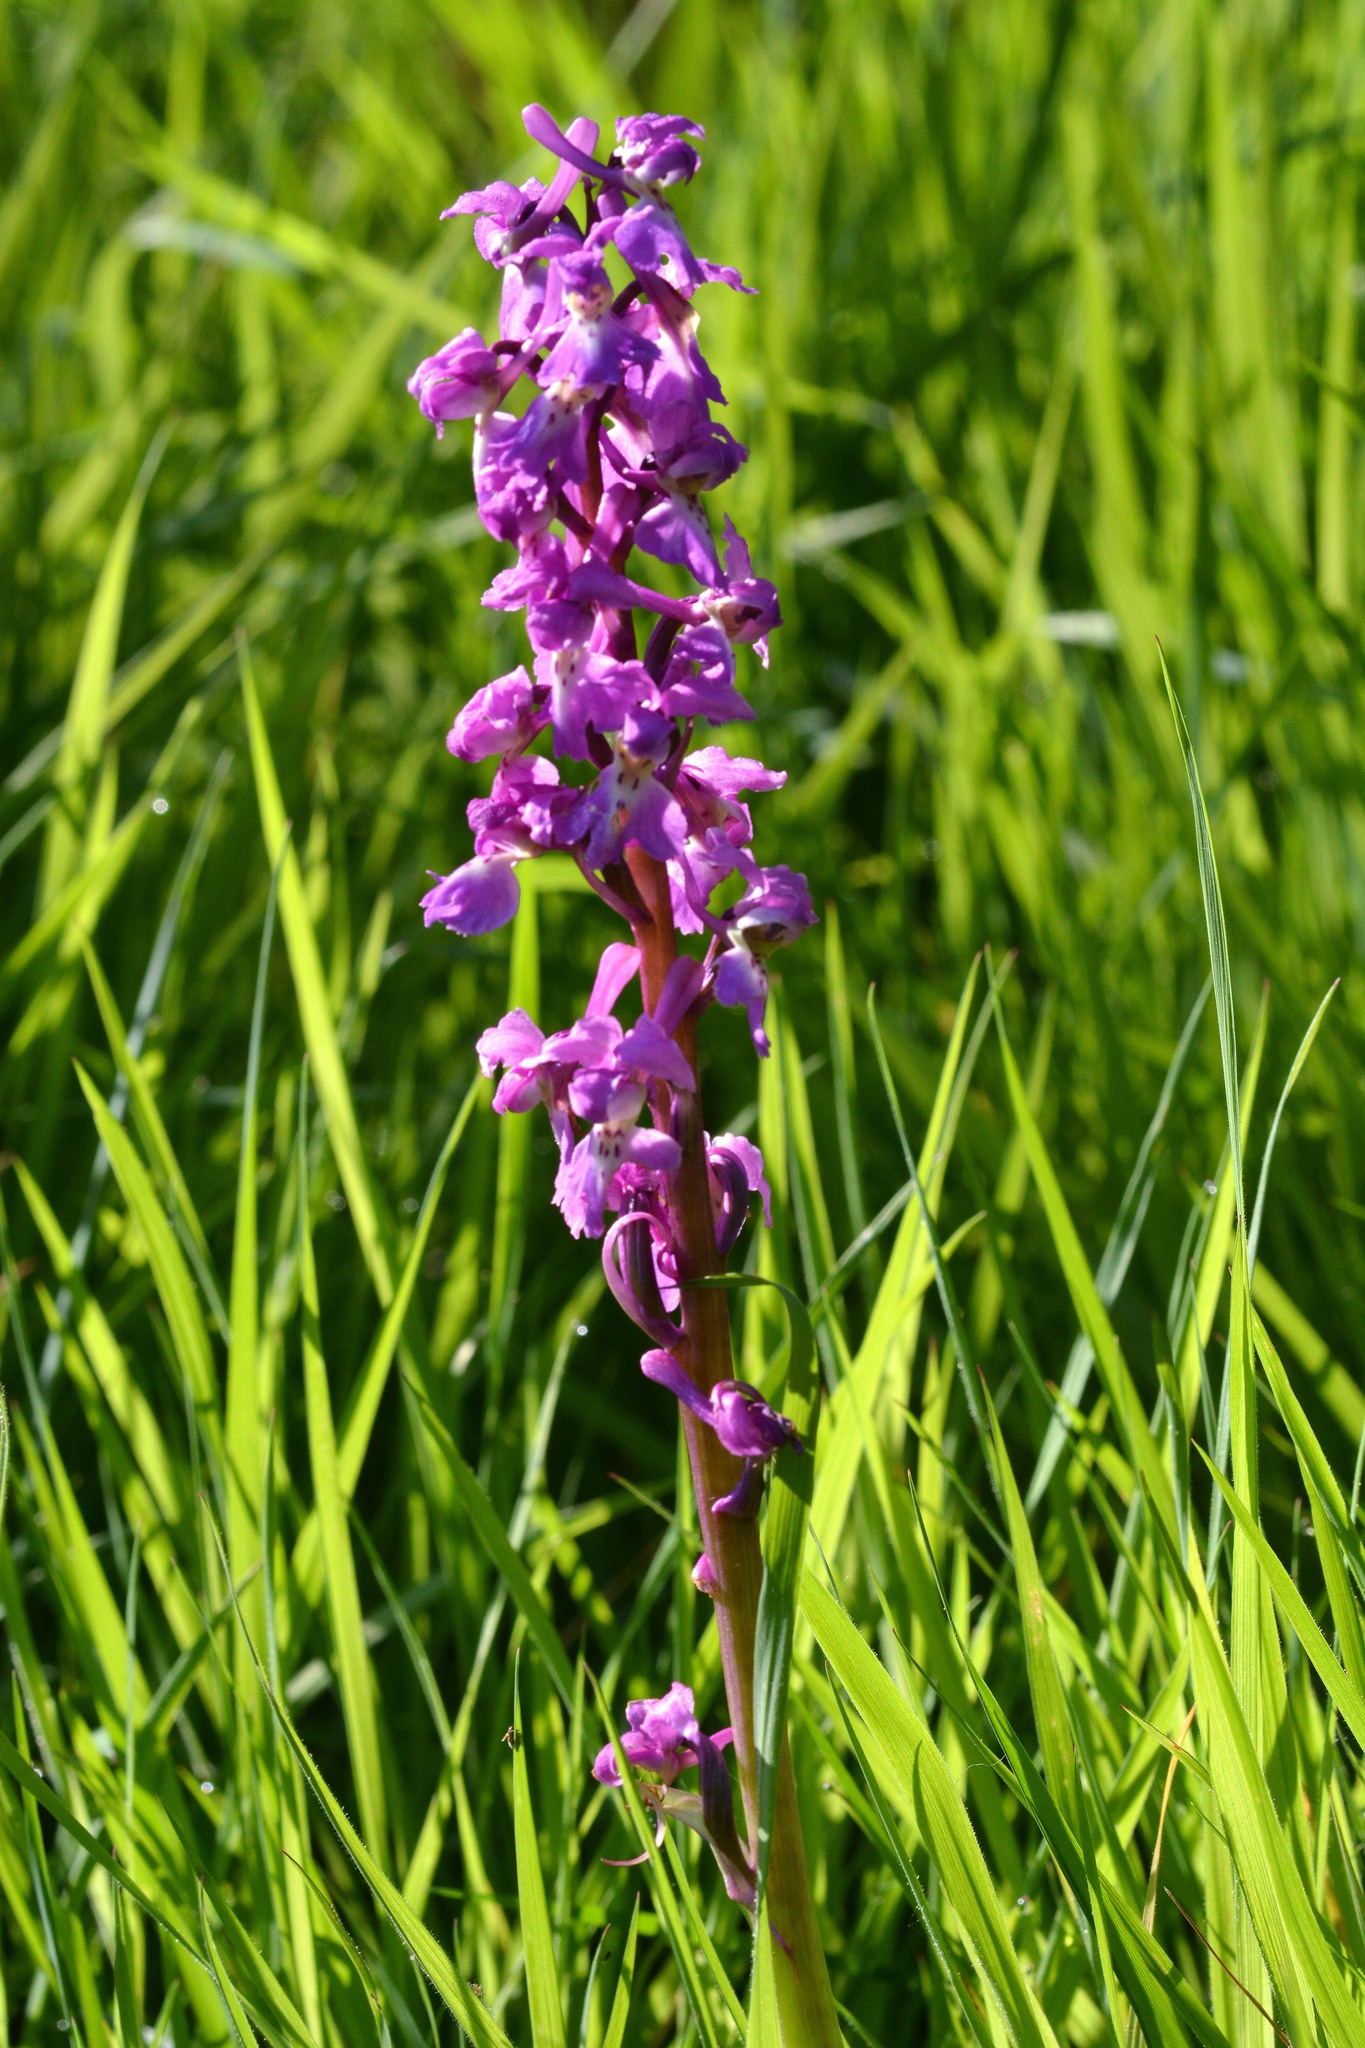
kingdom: Plantae
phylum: Tracheophyta
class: Liliopsida
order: Asparagales
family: Orchidaceae
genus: Orchis
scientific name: Orchis mascula
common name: Early-purple orchid
